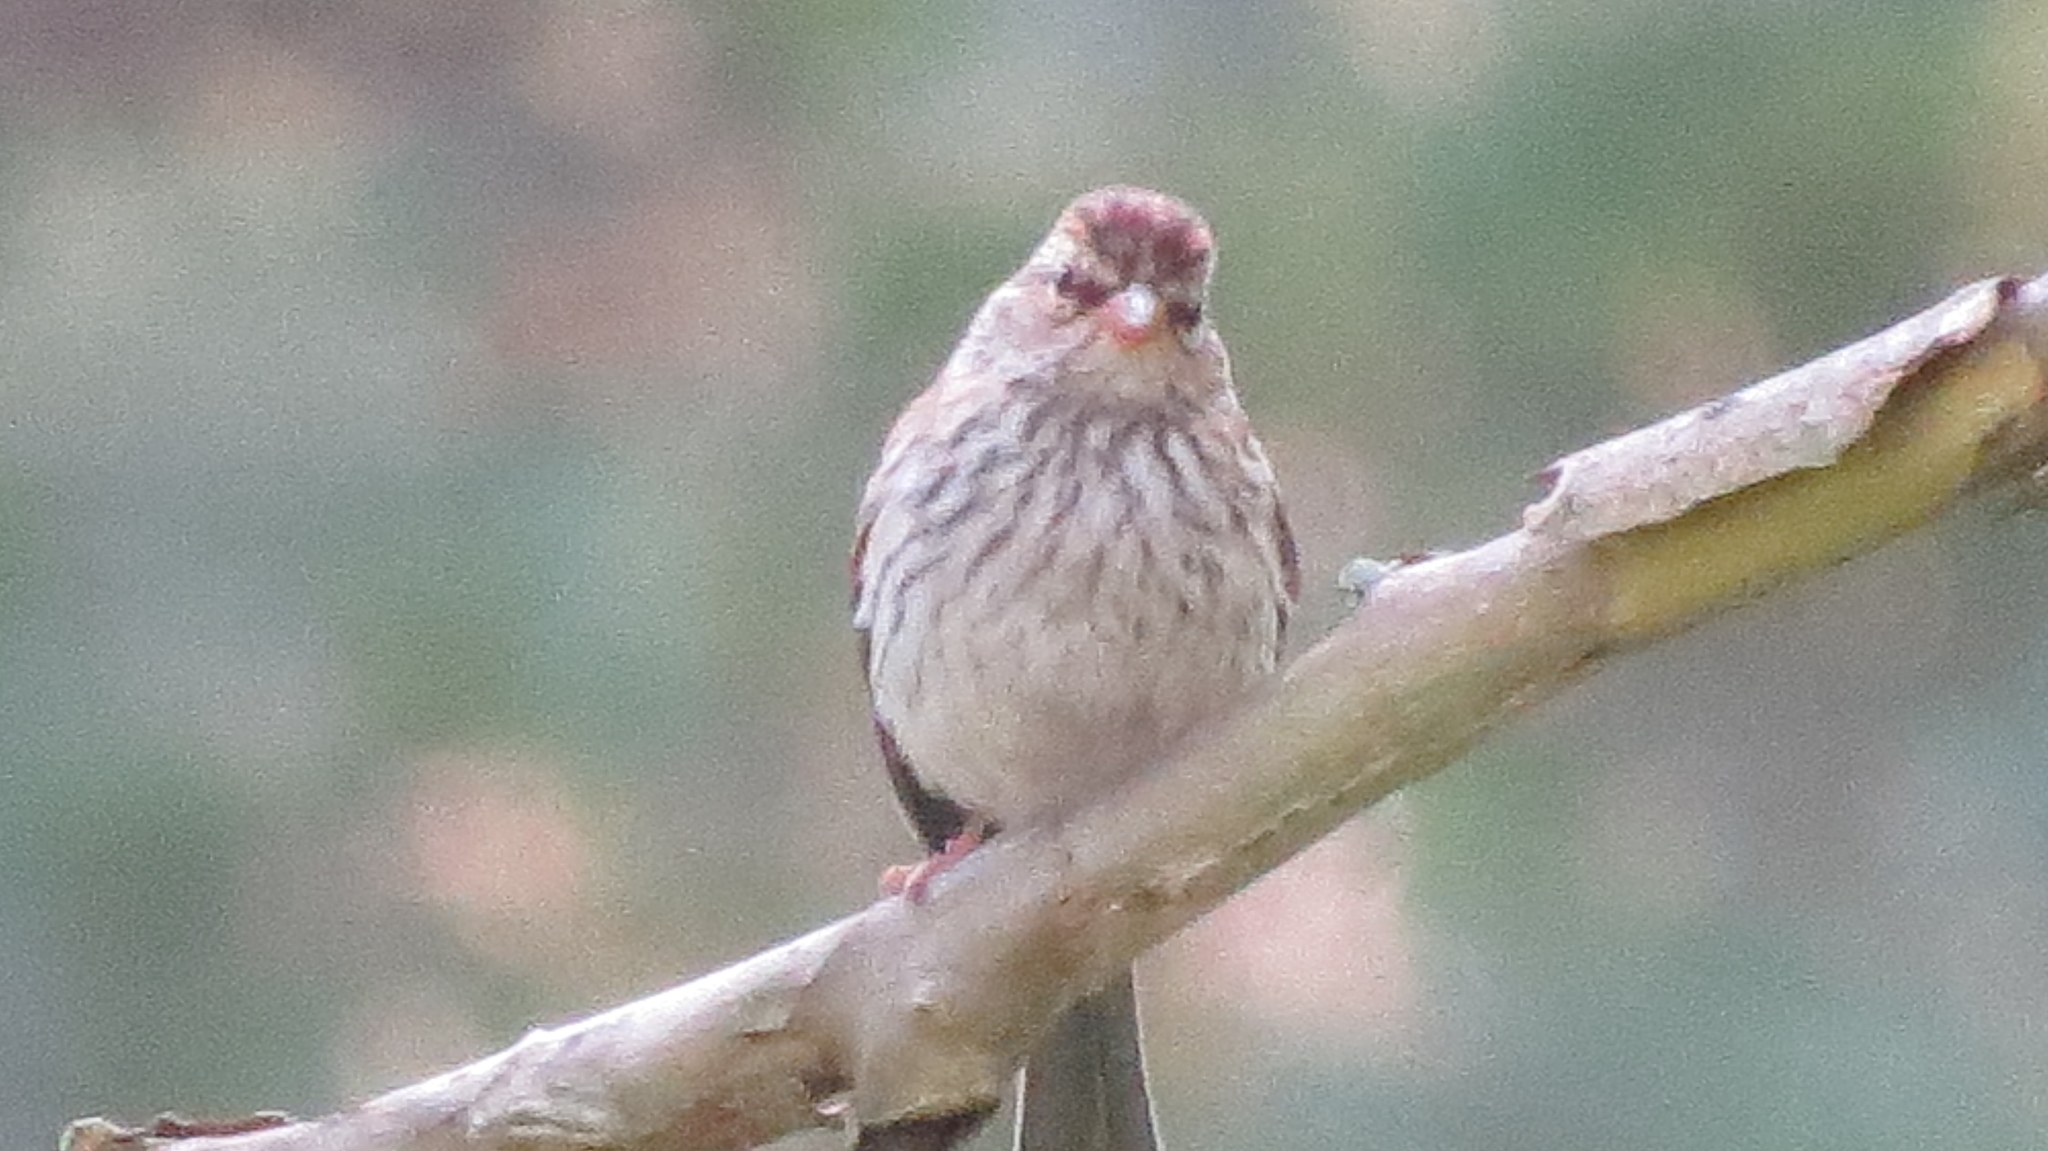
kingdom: Animalia
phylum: Chordata
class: Aves
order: Passeriformes
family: Passerellidae
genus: Spizella
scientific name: Spizella passerina
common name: Chipping sparrow
